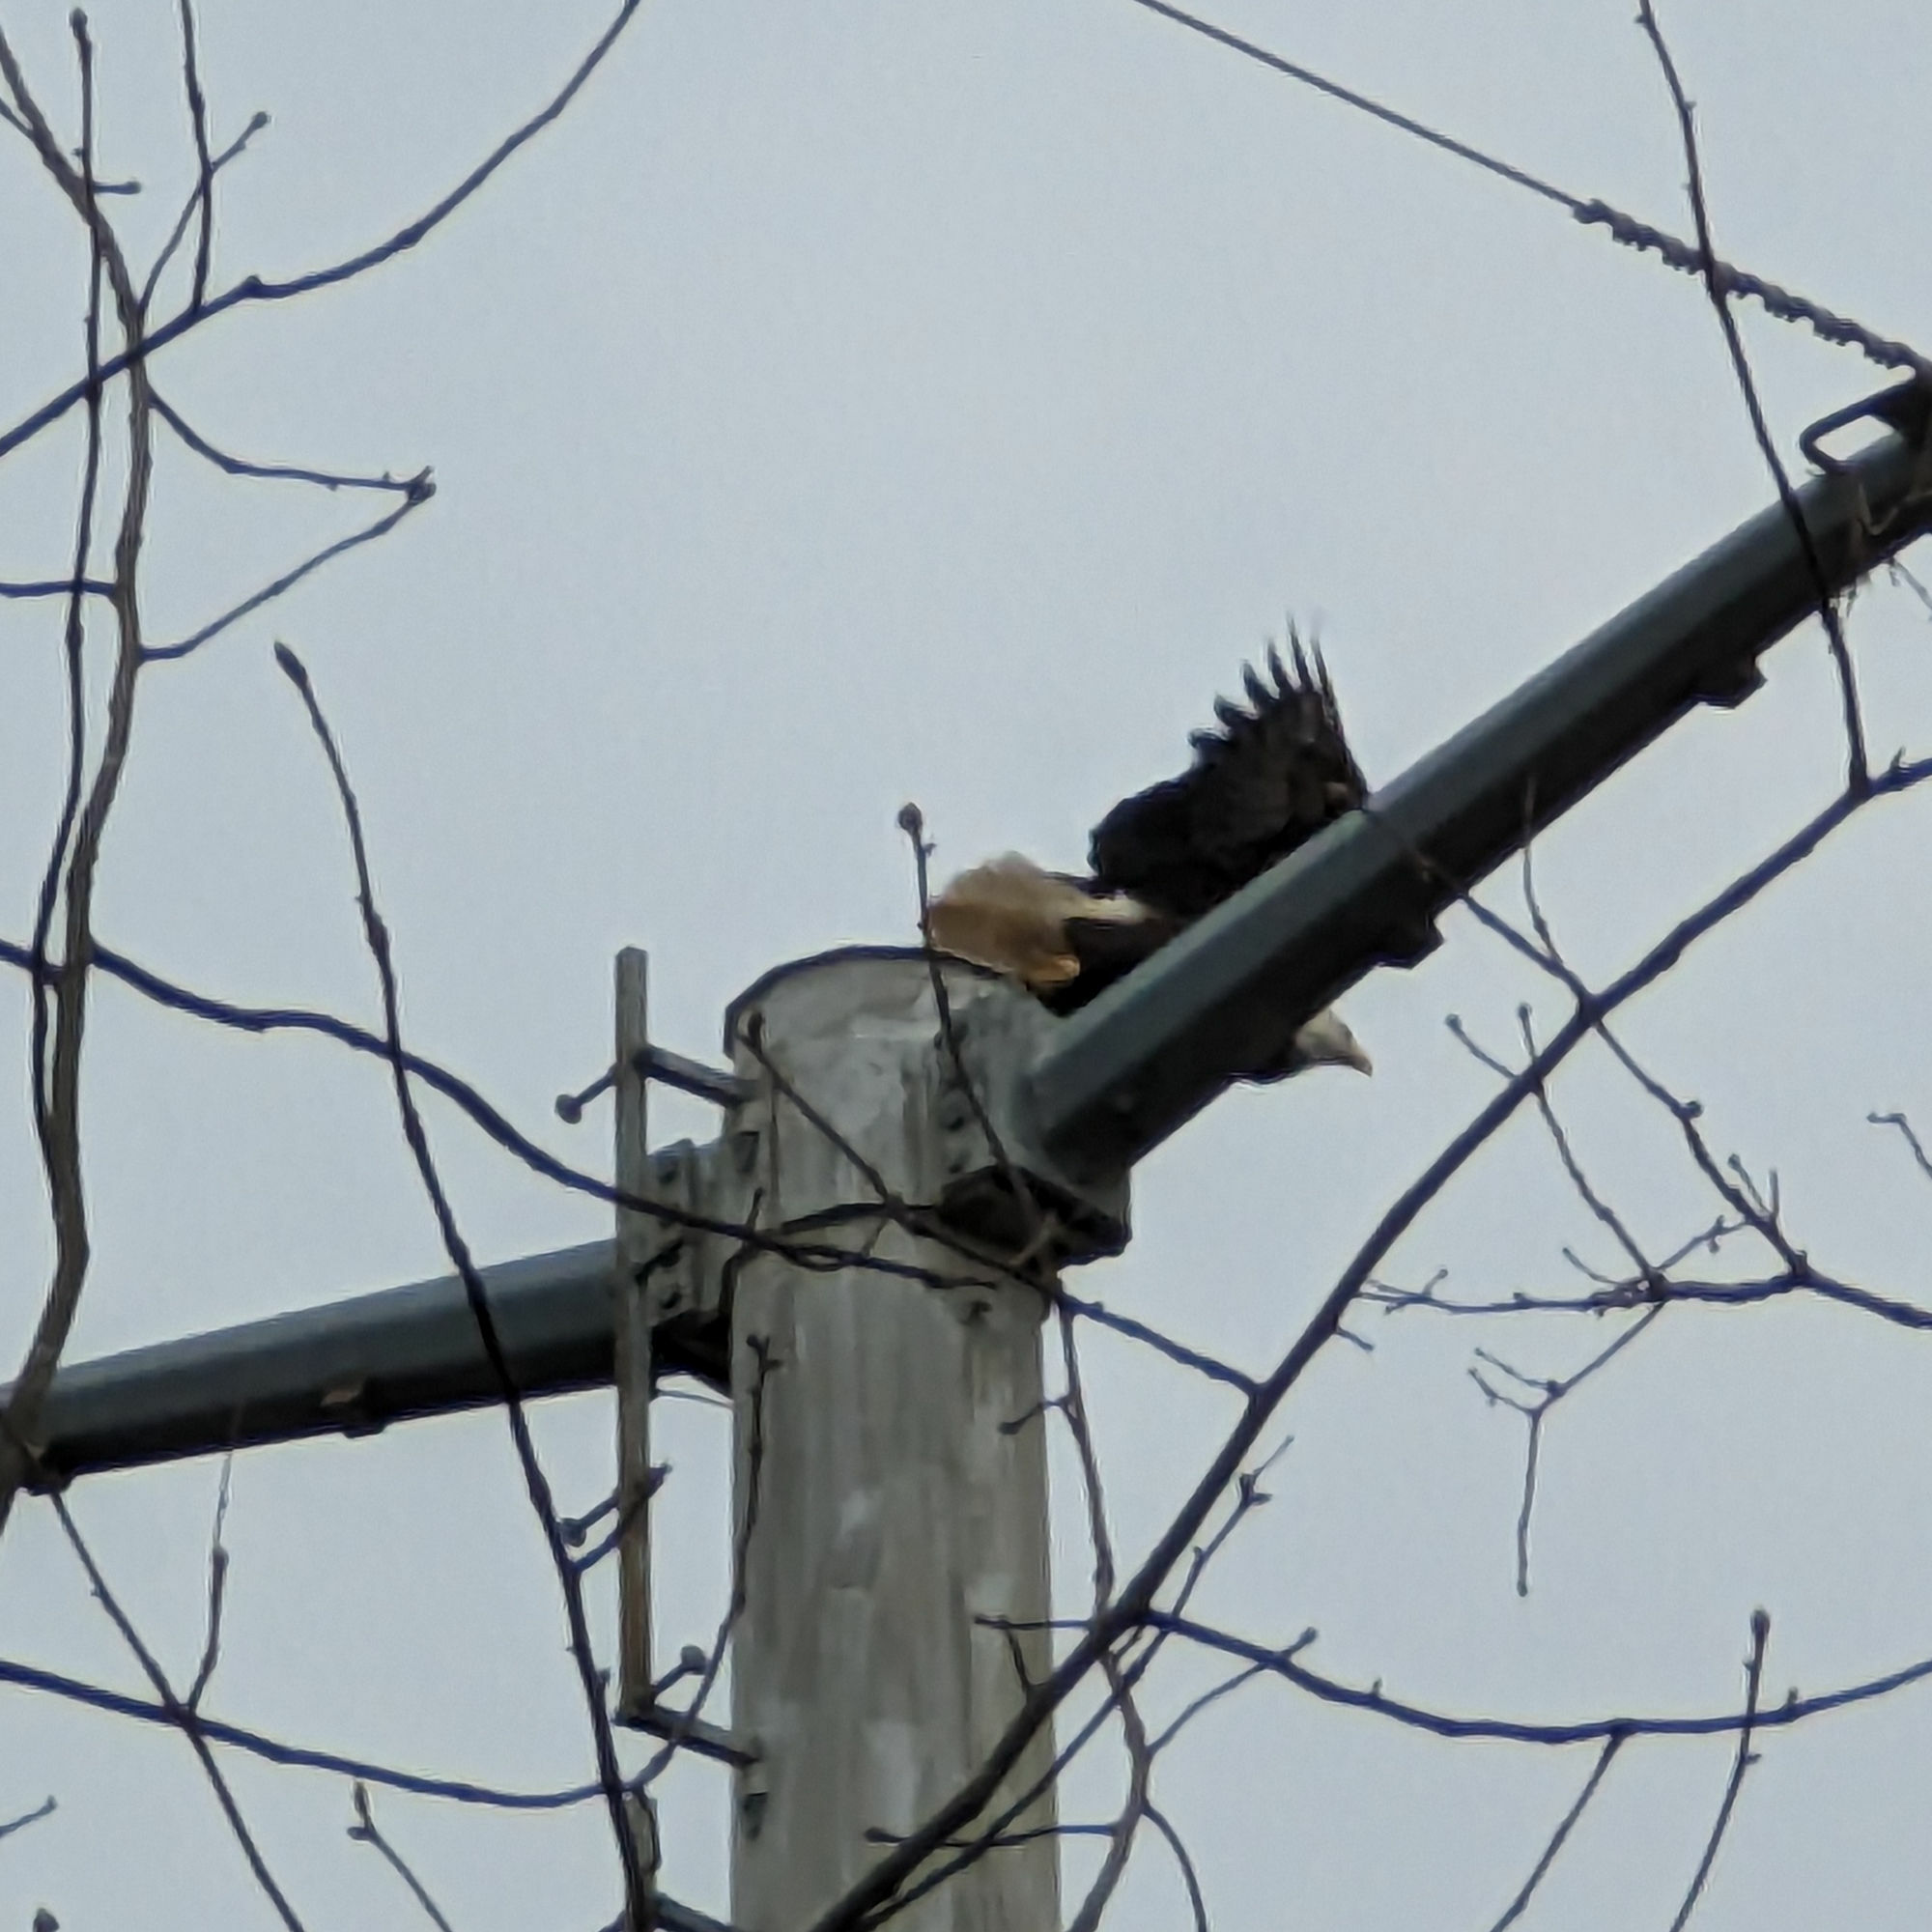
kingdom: Animalia
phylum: Chordata
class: Aves
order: Accipitriformes
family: Accipitridae
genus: Haliaeetus
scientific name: Haliaeetus leucocephalus
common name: Bald eagle
